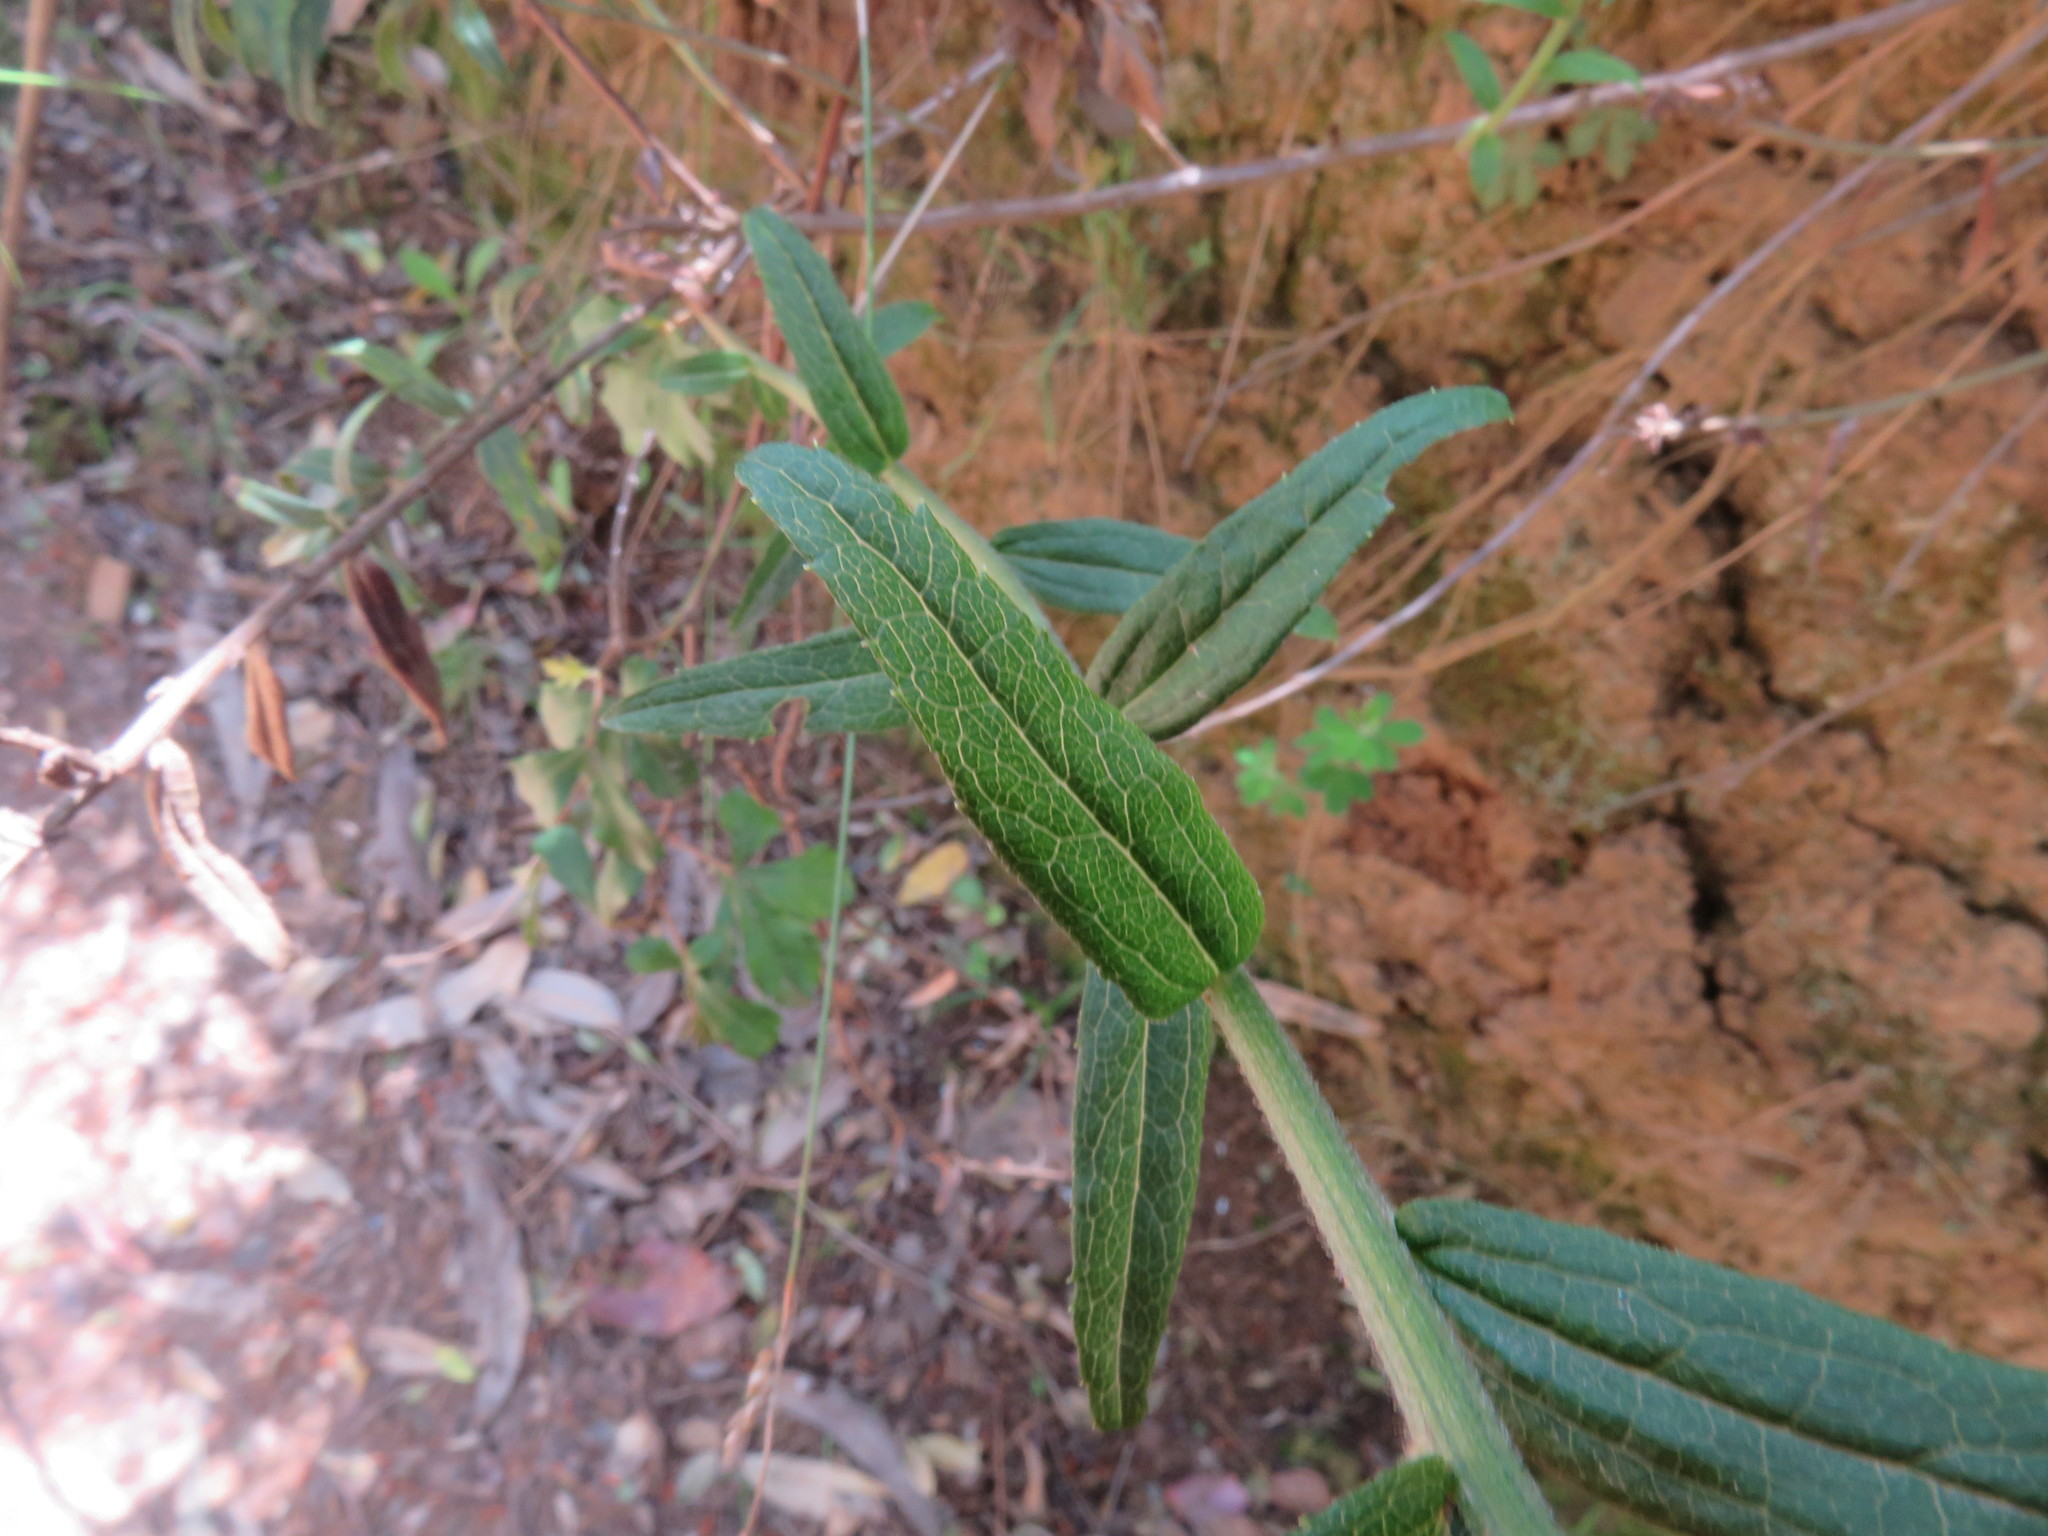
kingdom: Plantae
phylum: Tracheophyta
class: Magnoliopsida
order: Asterales
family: Asteraceae
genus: Baccharis
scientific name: Baccharis racemosa
